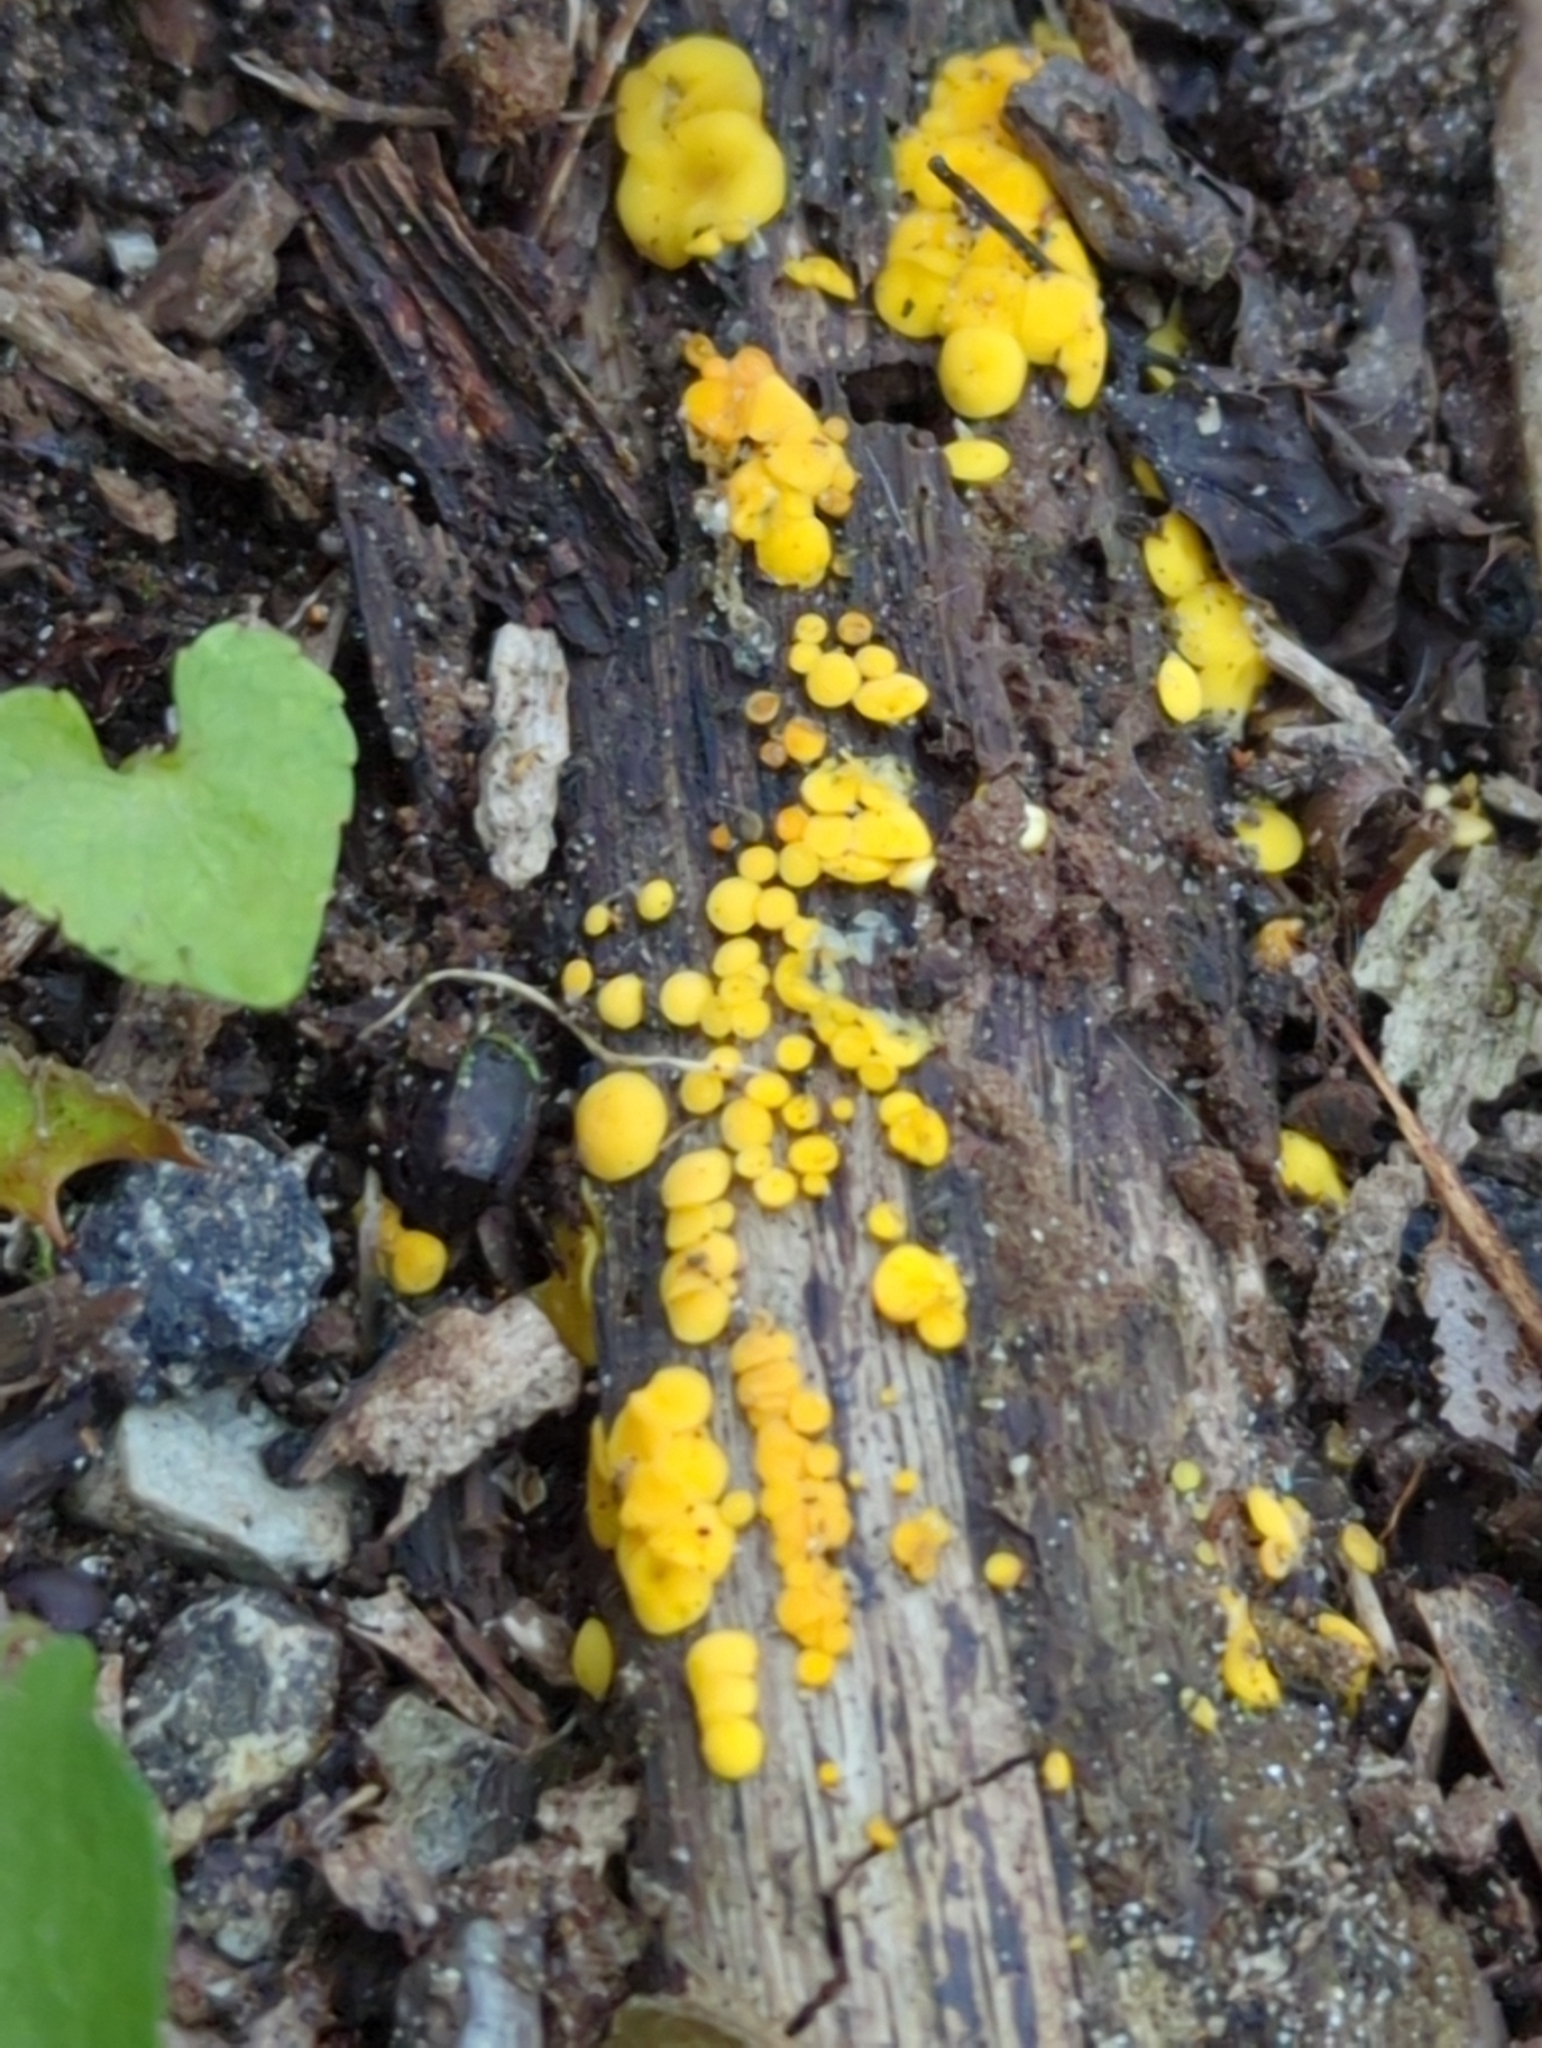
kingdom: Fungi
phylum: Ascomycota
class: Leotiomycetes
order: Helotiales
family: Pezizellaceae
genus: Calycina
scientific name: Calycina citrina
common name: Yellow fairy cups
